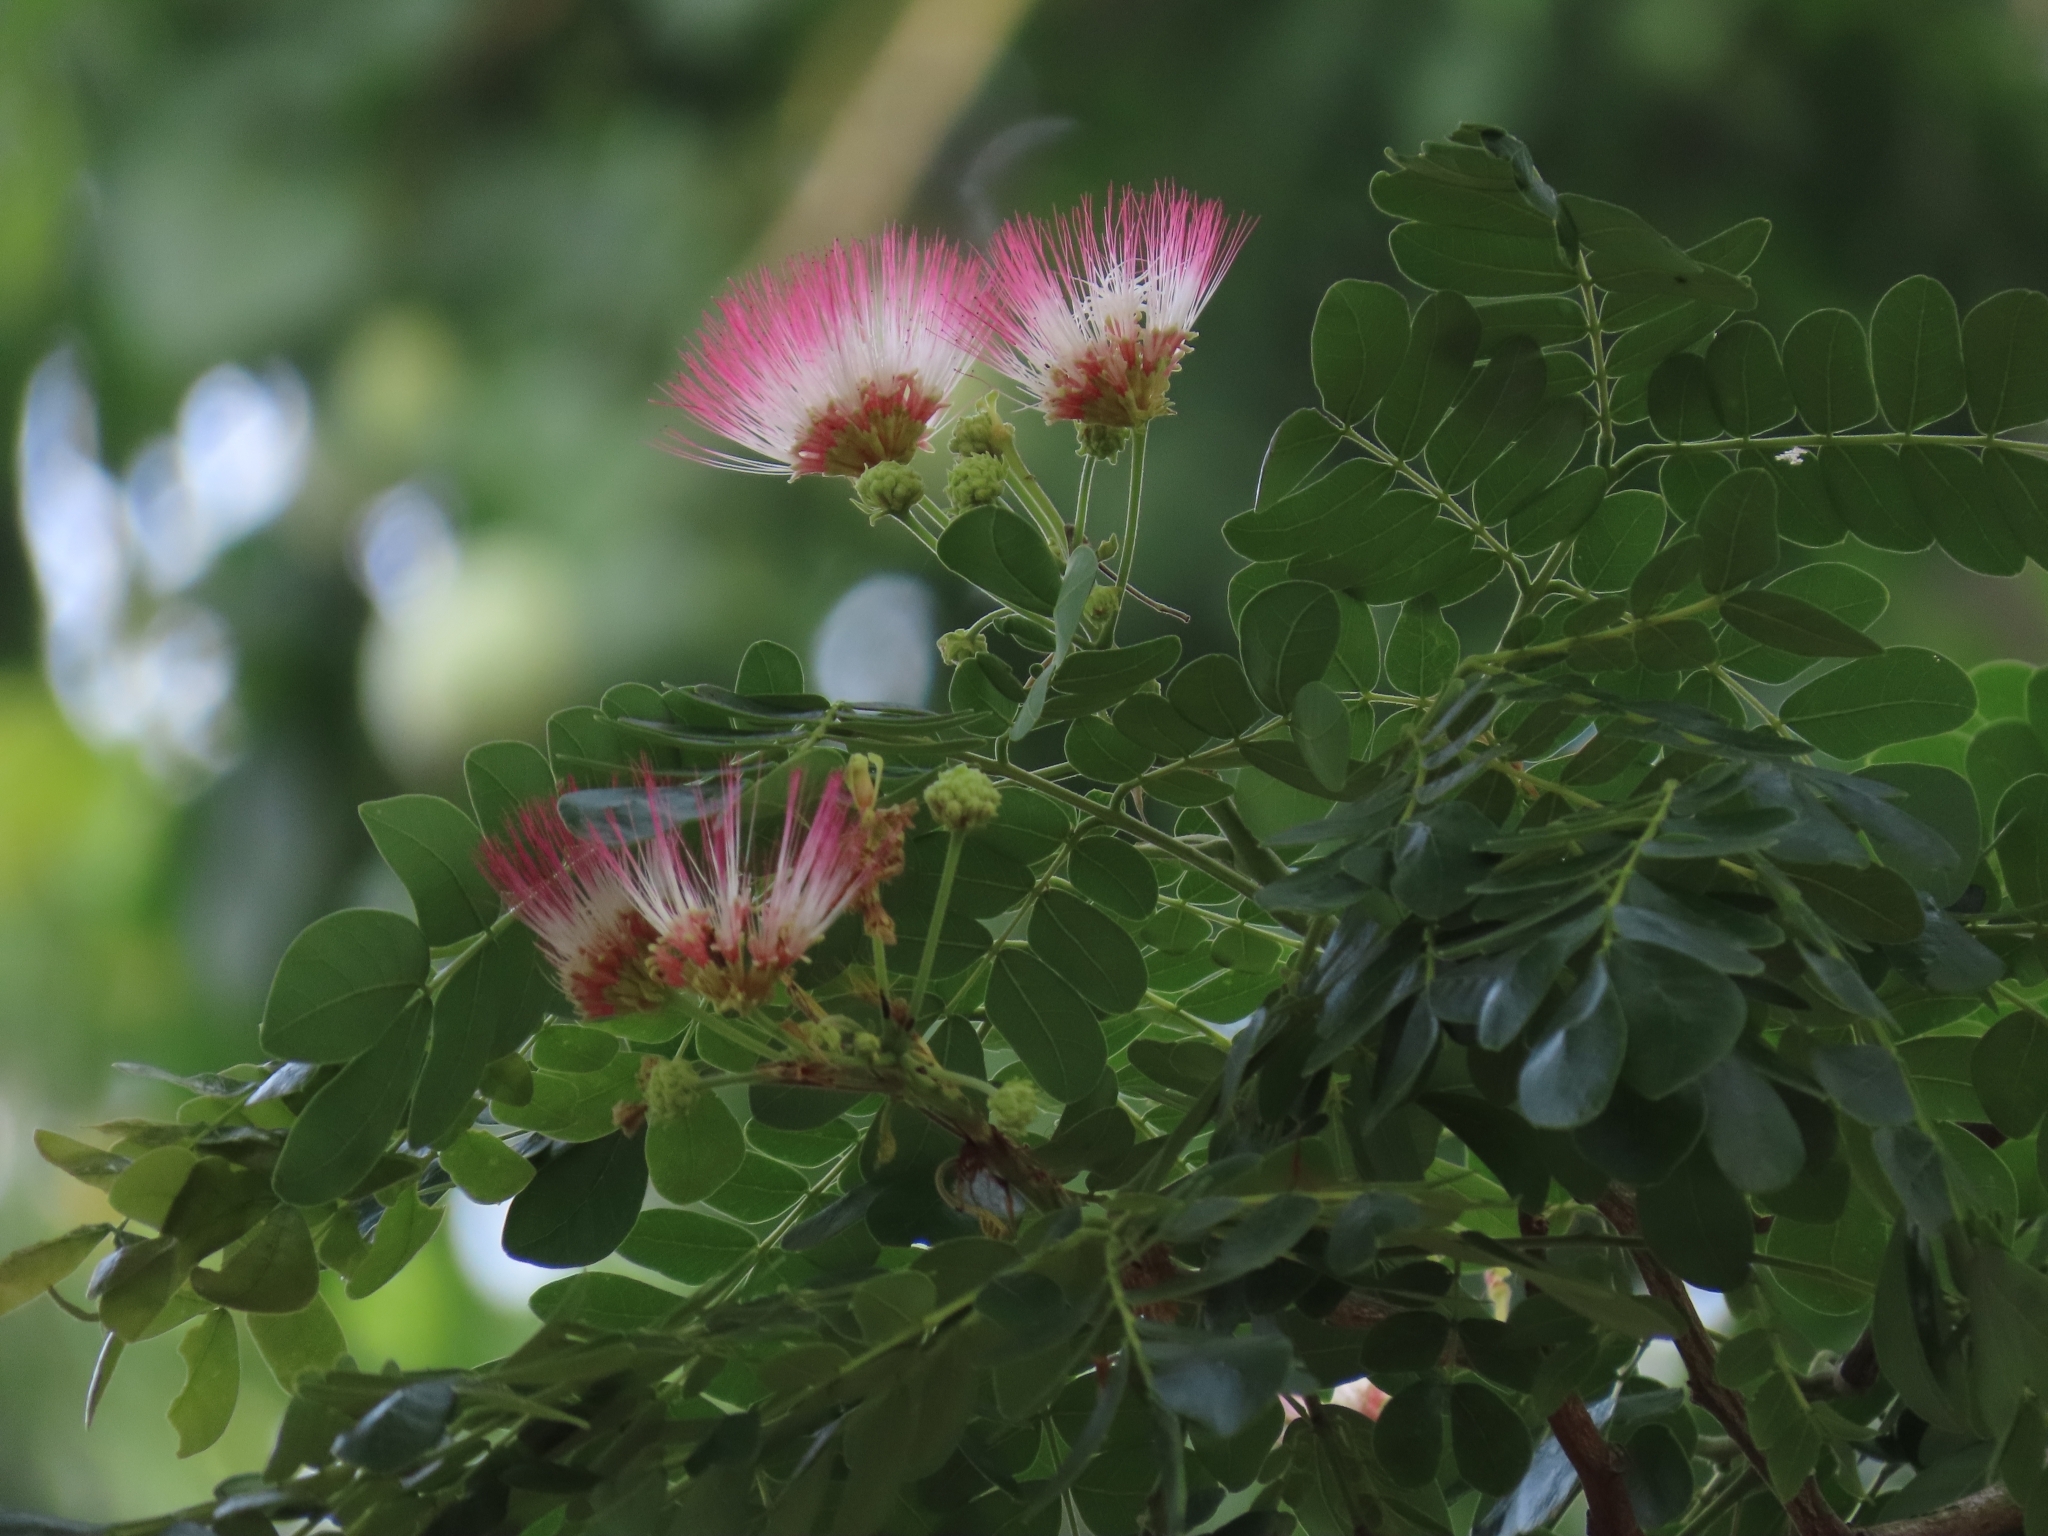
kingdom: Plantae
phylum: Tracheophyta
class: Magnoliopsida
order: Fabales
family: Fabaceae
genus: Samanea
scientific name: Samanea saman
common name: Raintree
